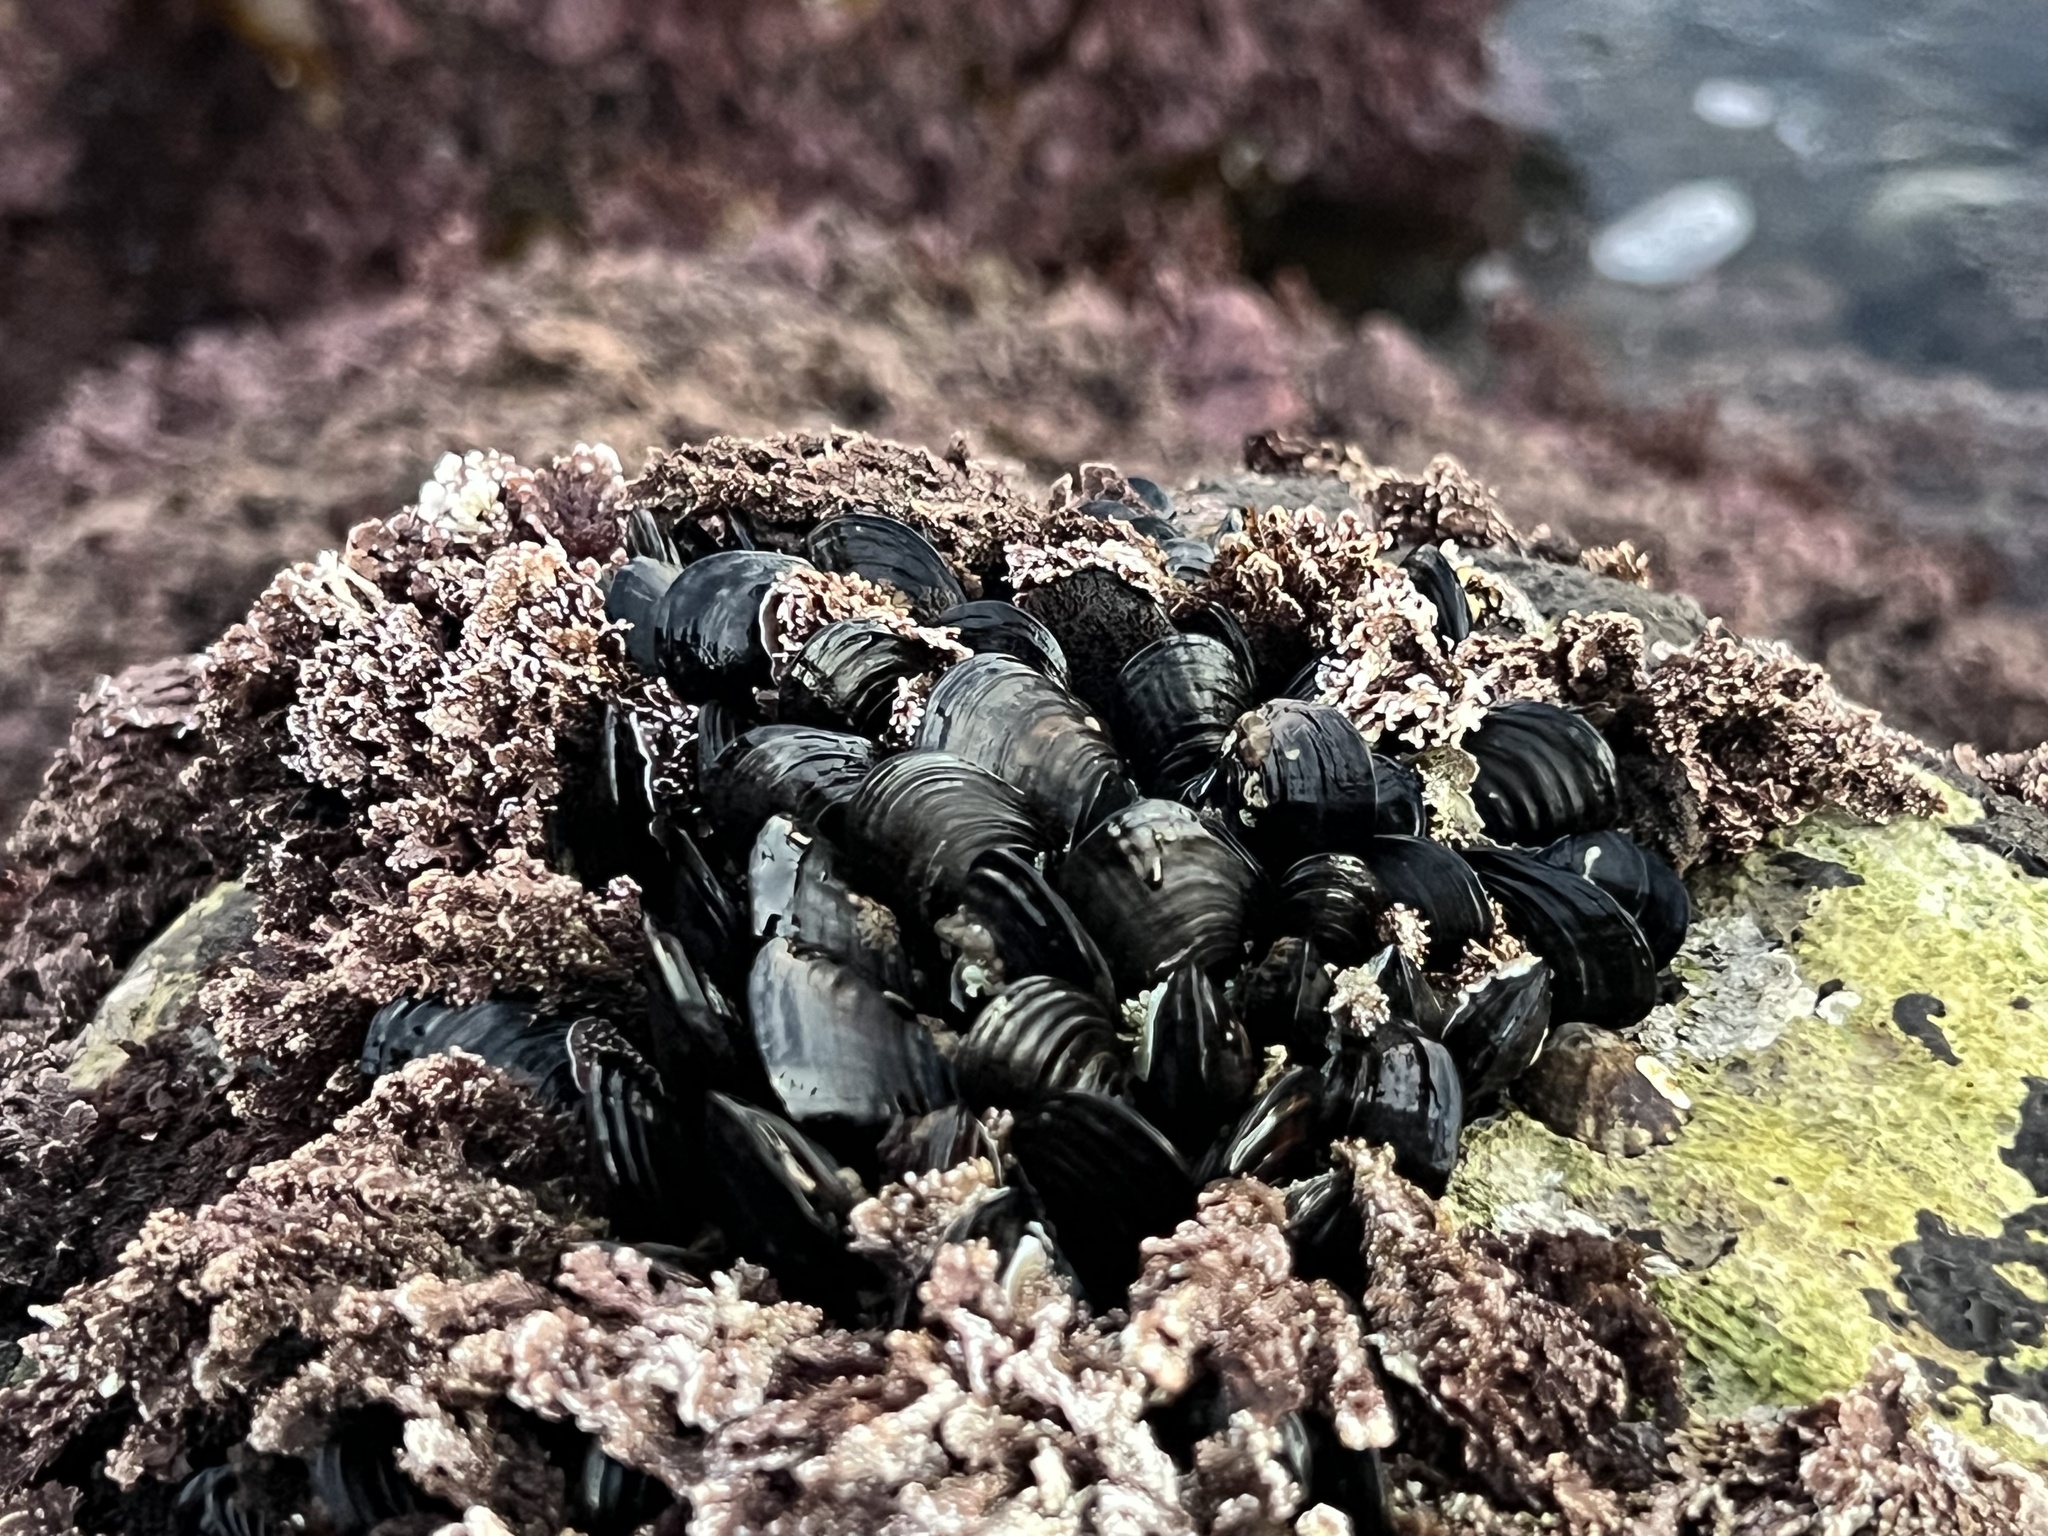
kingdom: Animalia
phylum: Mollusca
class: Bivalvia
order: Mytilida
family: Mytilidae
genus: Mytilus
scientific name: Mytilus californianus
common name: California mussel
